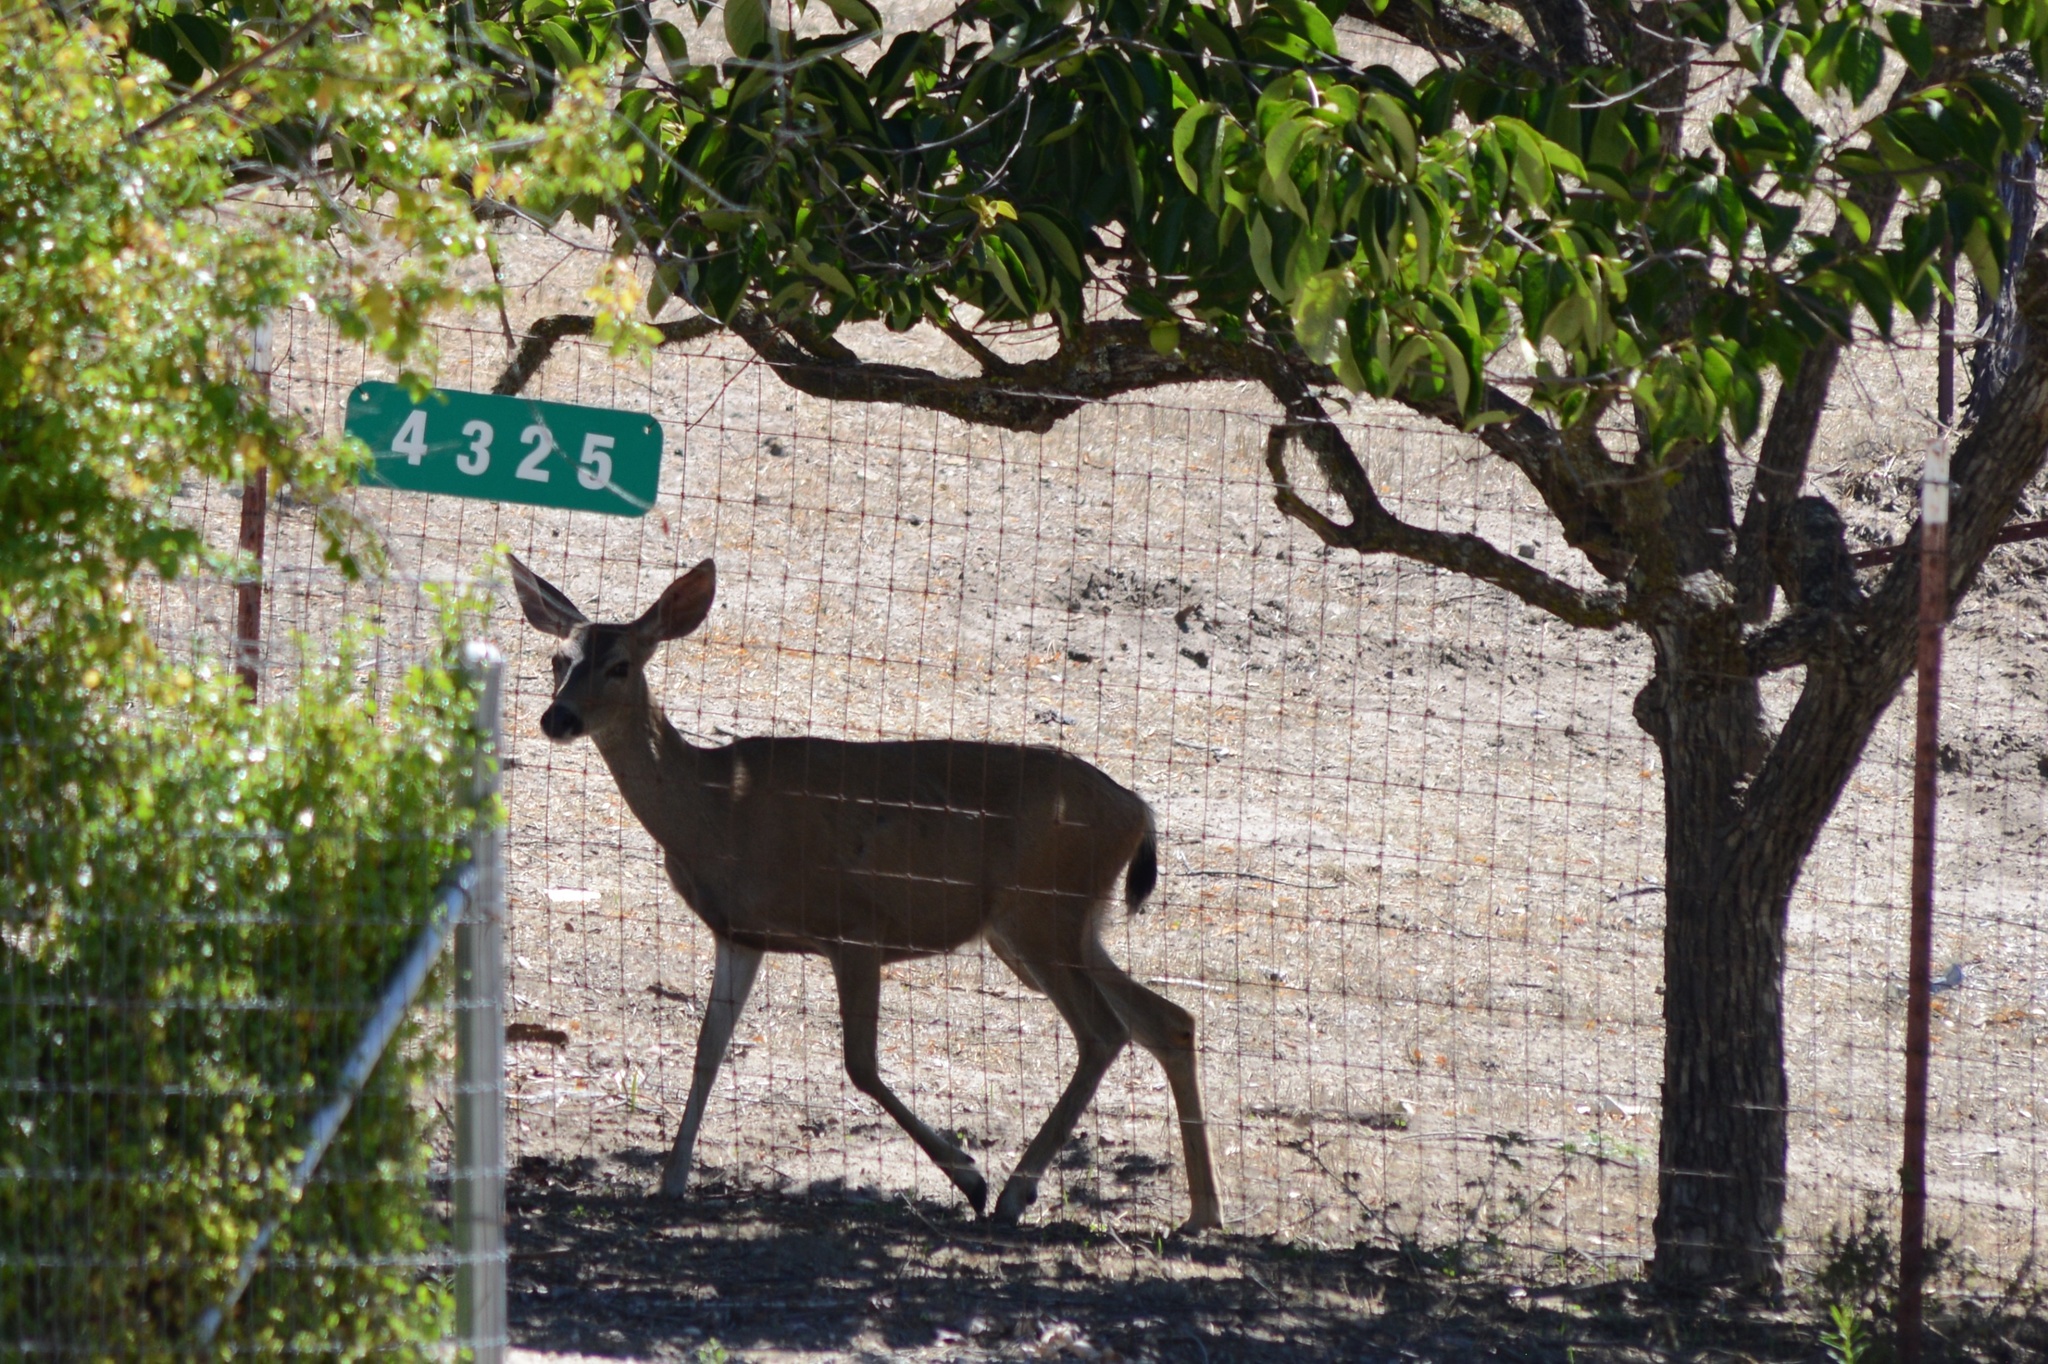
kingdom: Animalia
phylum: Chordata
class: Mammalia
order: Artiodactyla
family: Cervidae
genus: Odocoileus
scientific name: Odocoileus hemionus
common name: Mule deer
